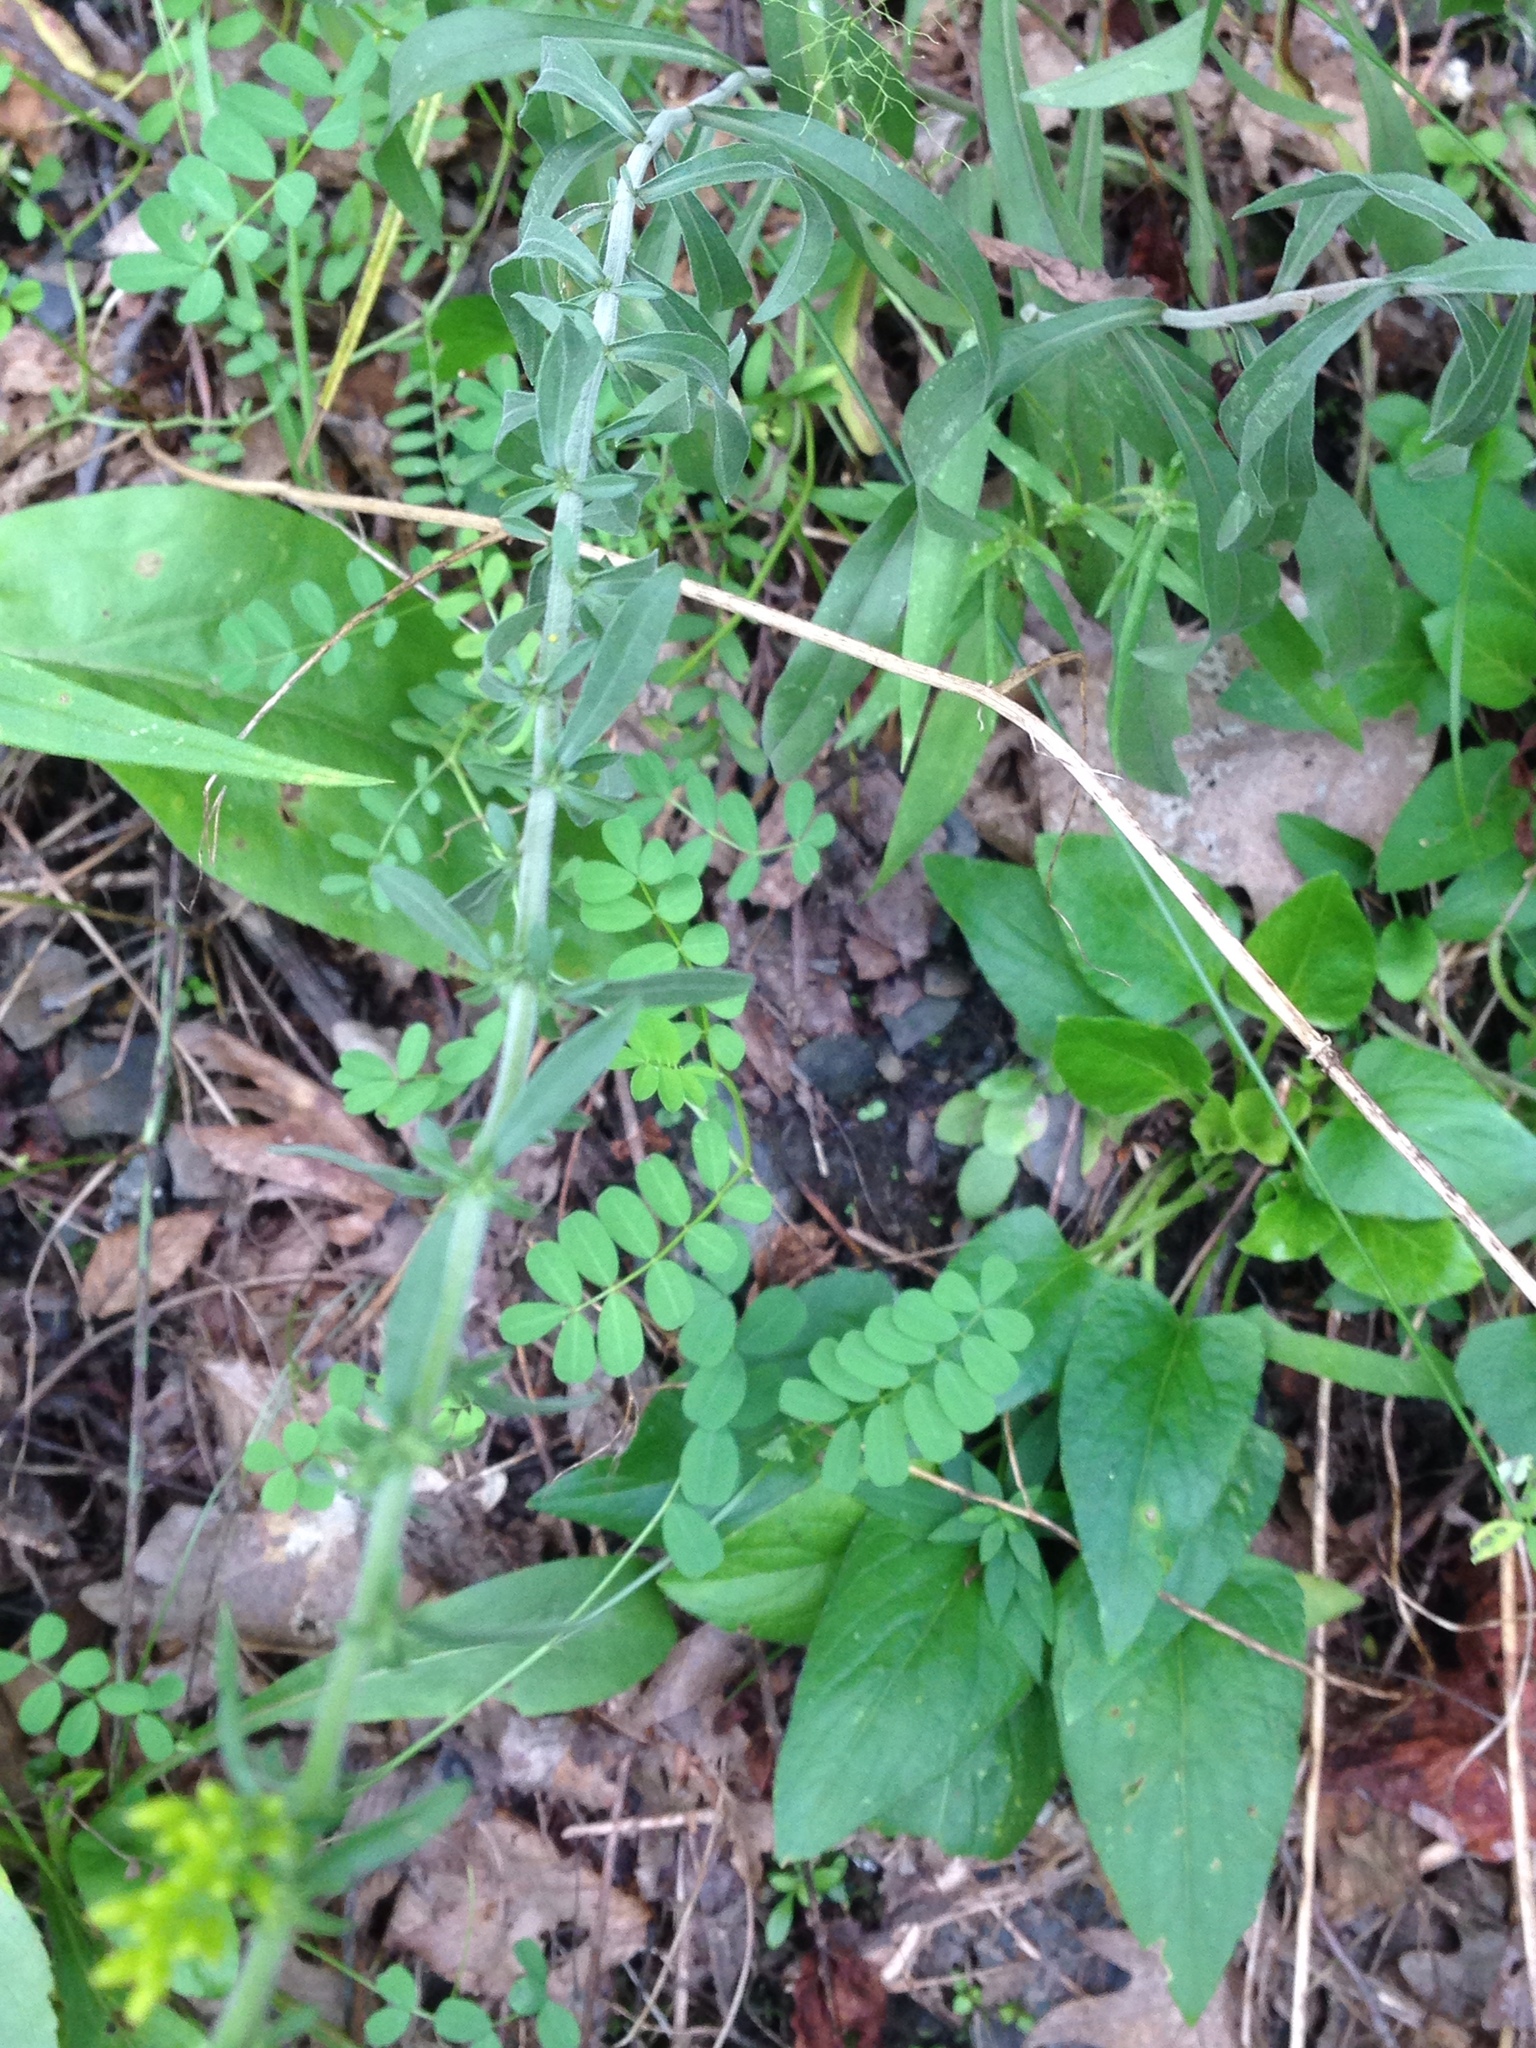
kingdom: Plantae
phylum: Tracheophyta
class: Magnoliopsida
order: Asterales
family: Asteraceae
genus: Solidago
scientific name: Solidago nemoralis
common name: Grey goldenrod
